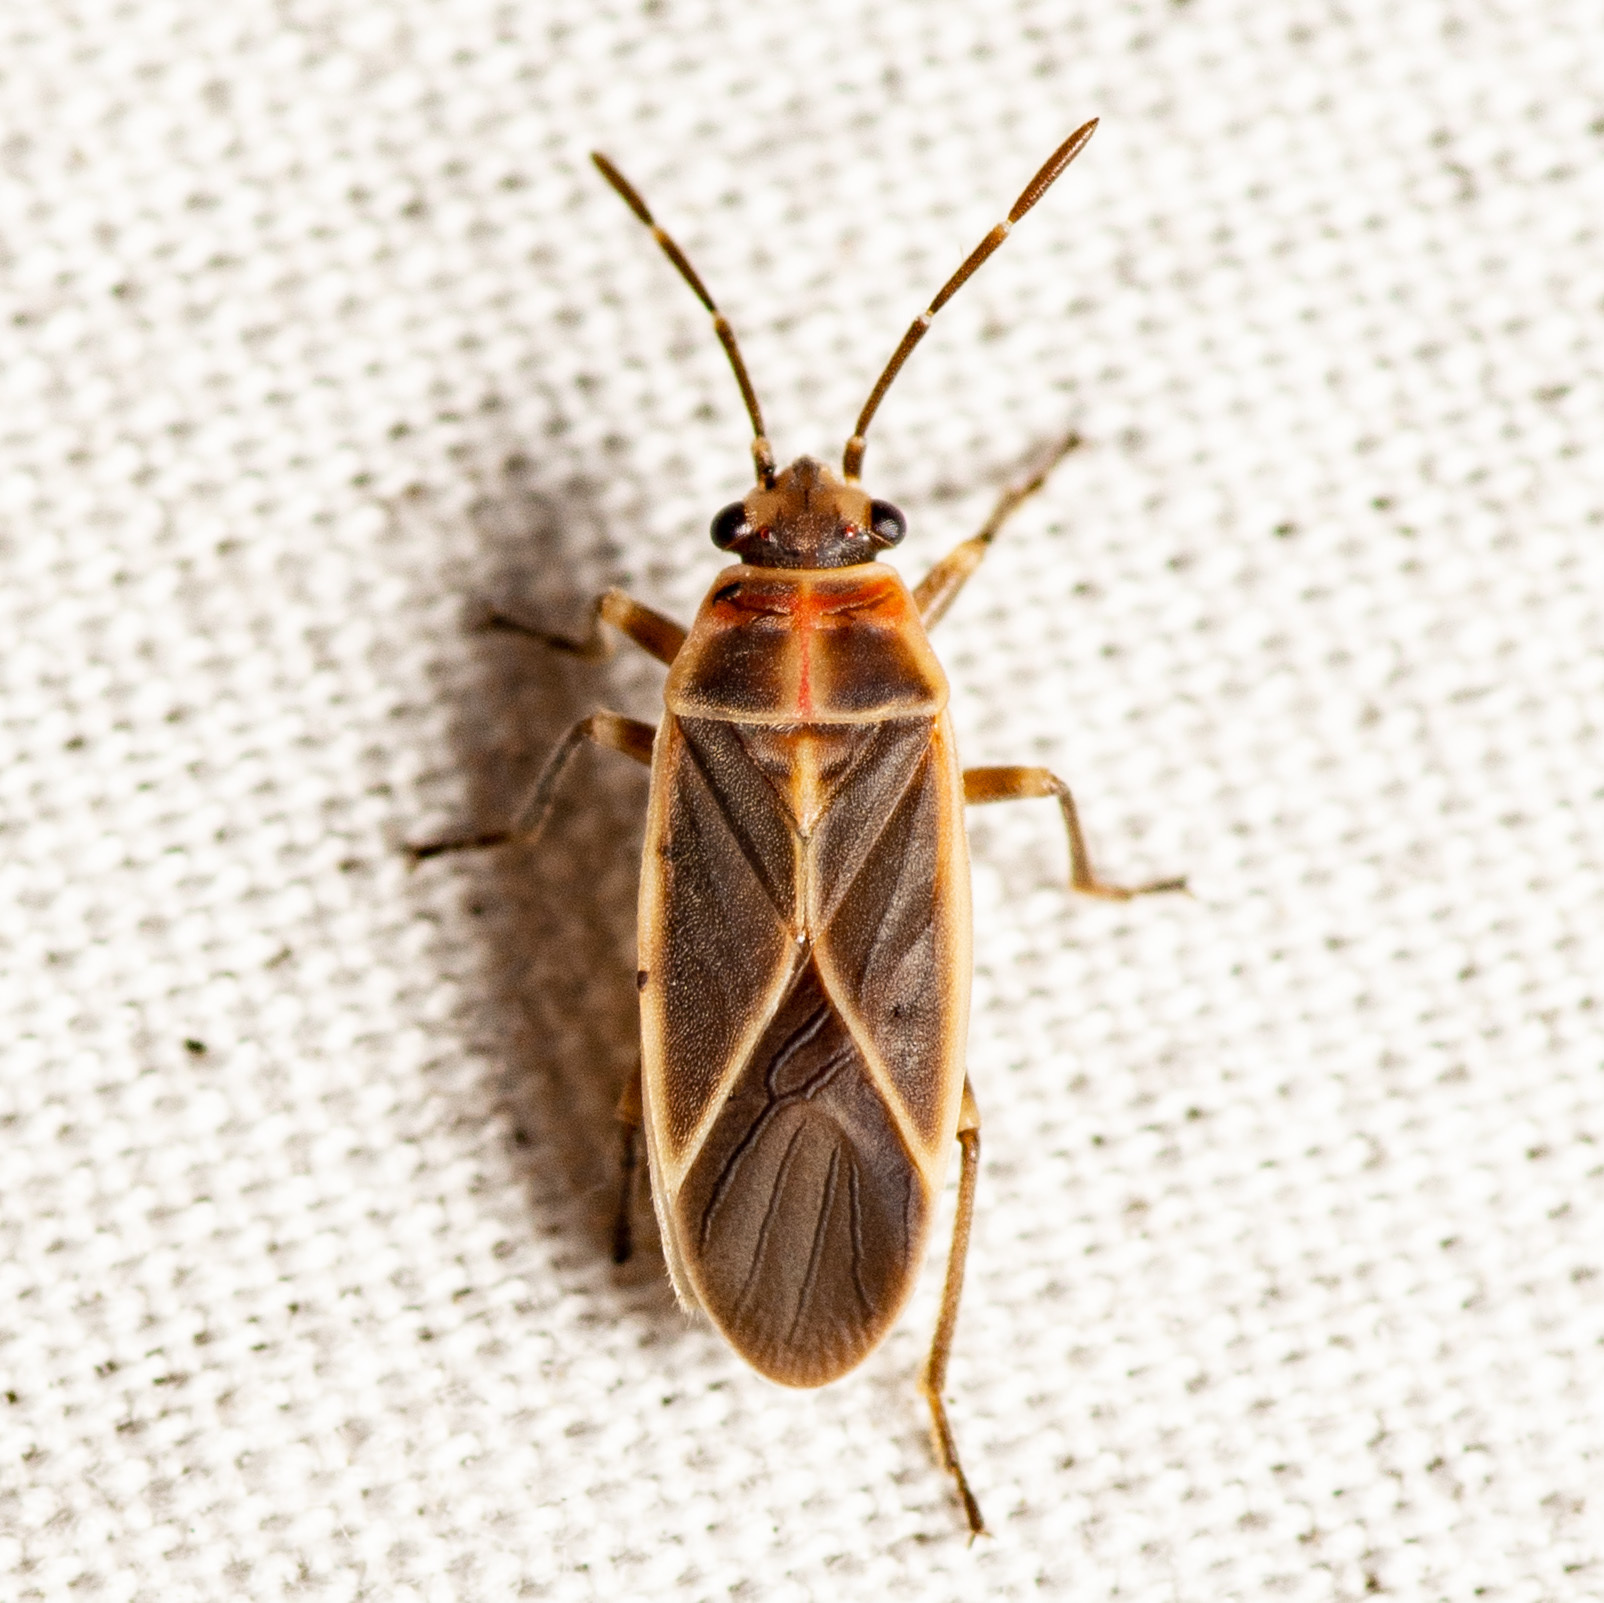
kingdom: Animalia
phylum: Arthropoda
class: Insecta
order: Hemiptera
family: Lygaeidae
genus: Ochrimnus
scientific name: Ochrimnus mimulus
